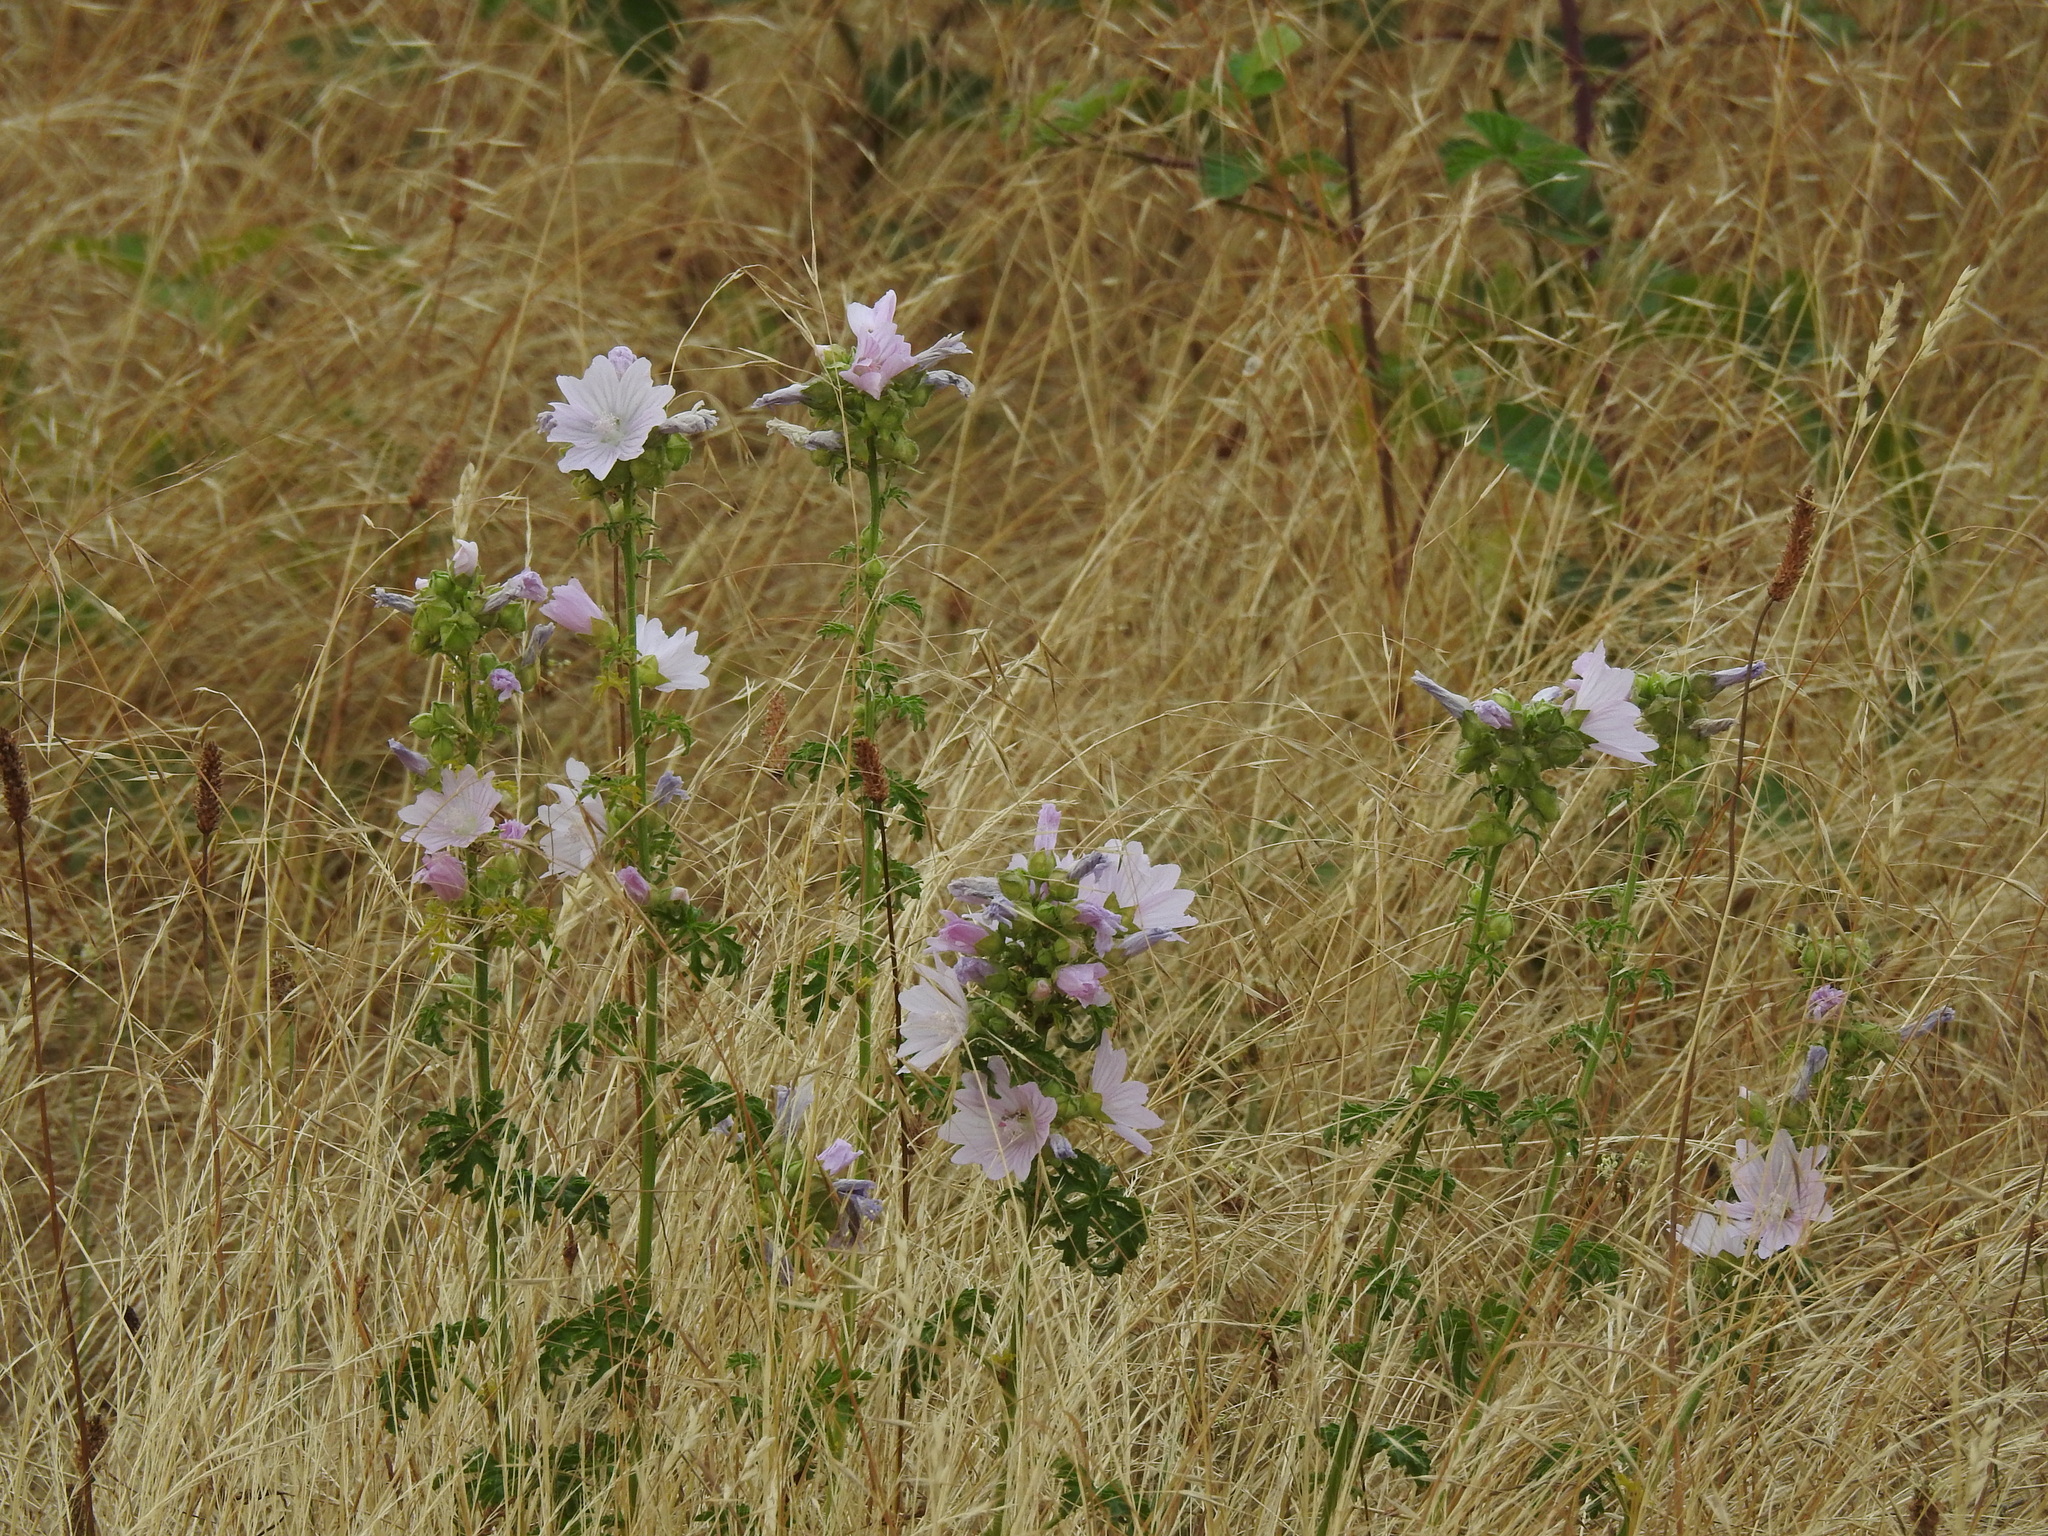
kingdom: Plantae
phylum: Tracheophyta
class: Magnoliopsida
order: Malvales
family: Malvaceae
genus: Malva
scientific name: Malva alcea
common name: Greater musk-mallow
